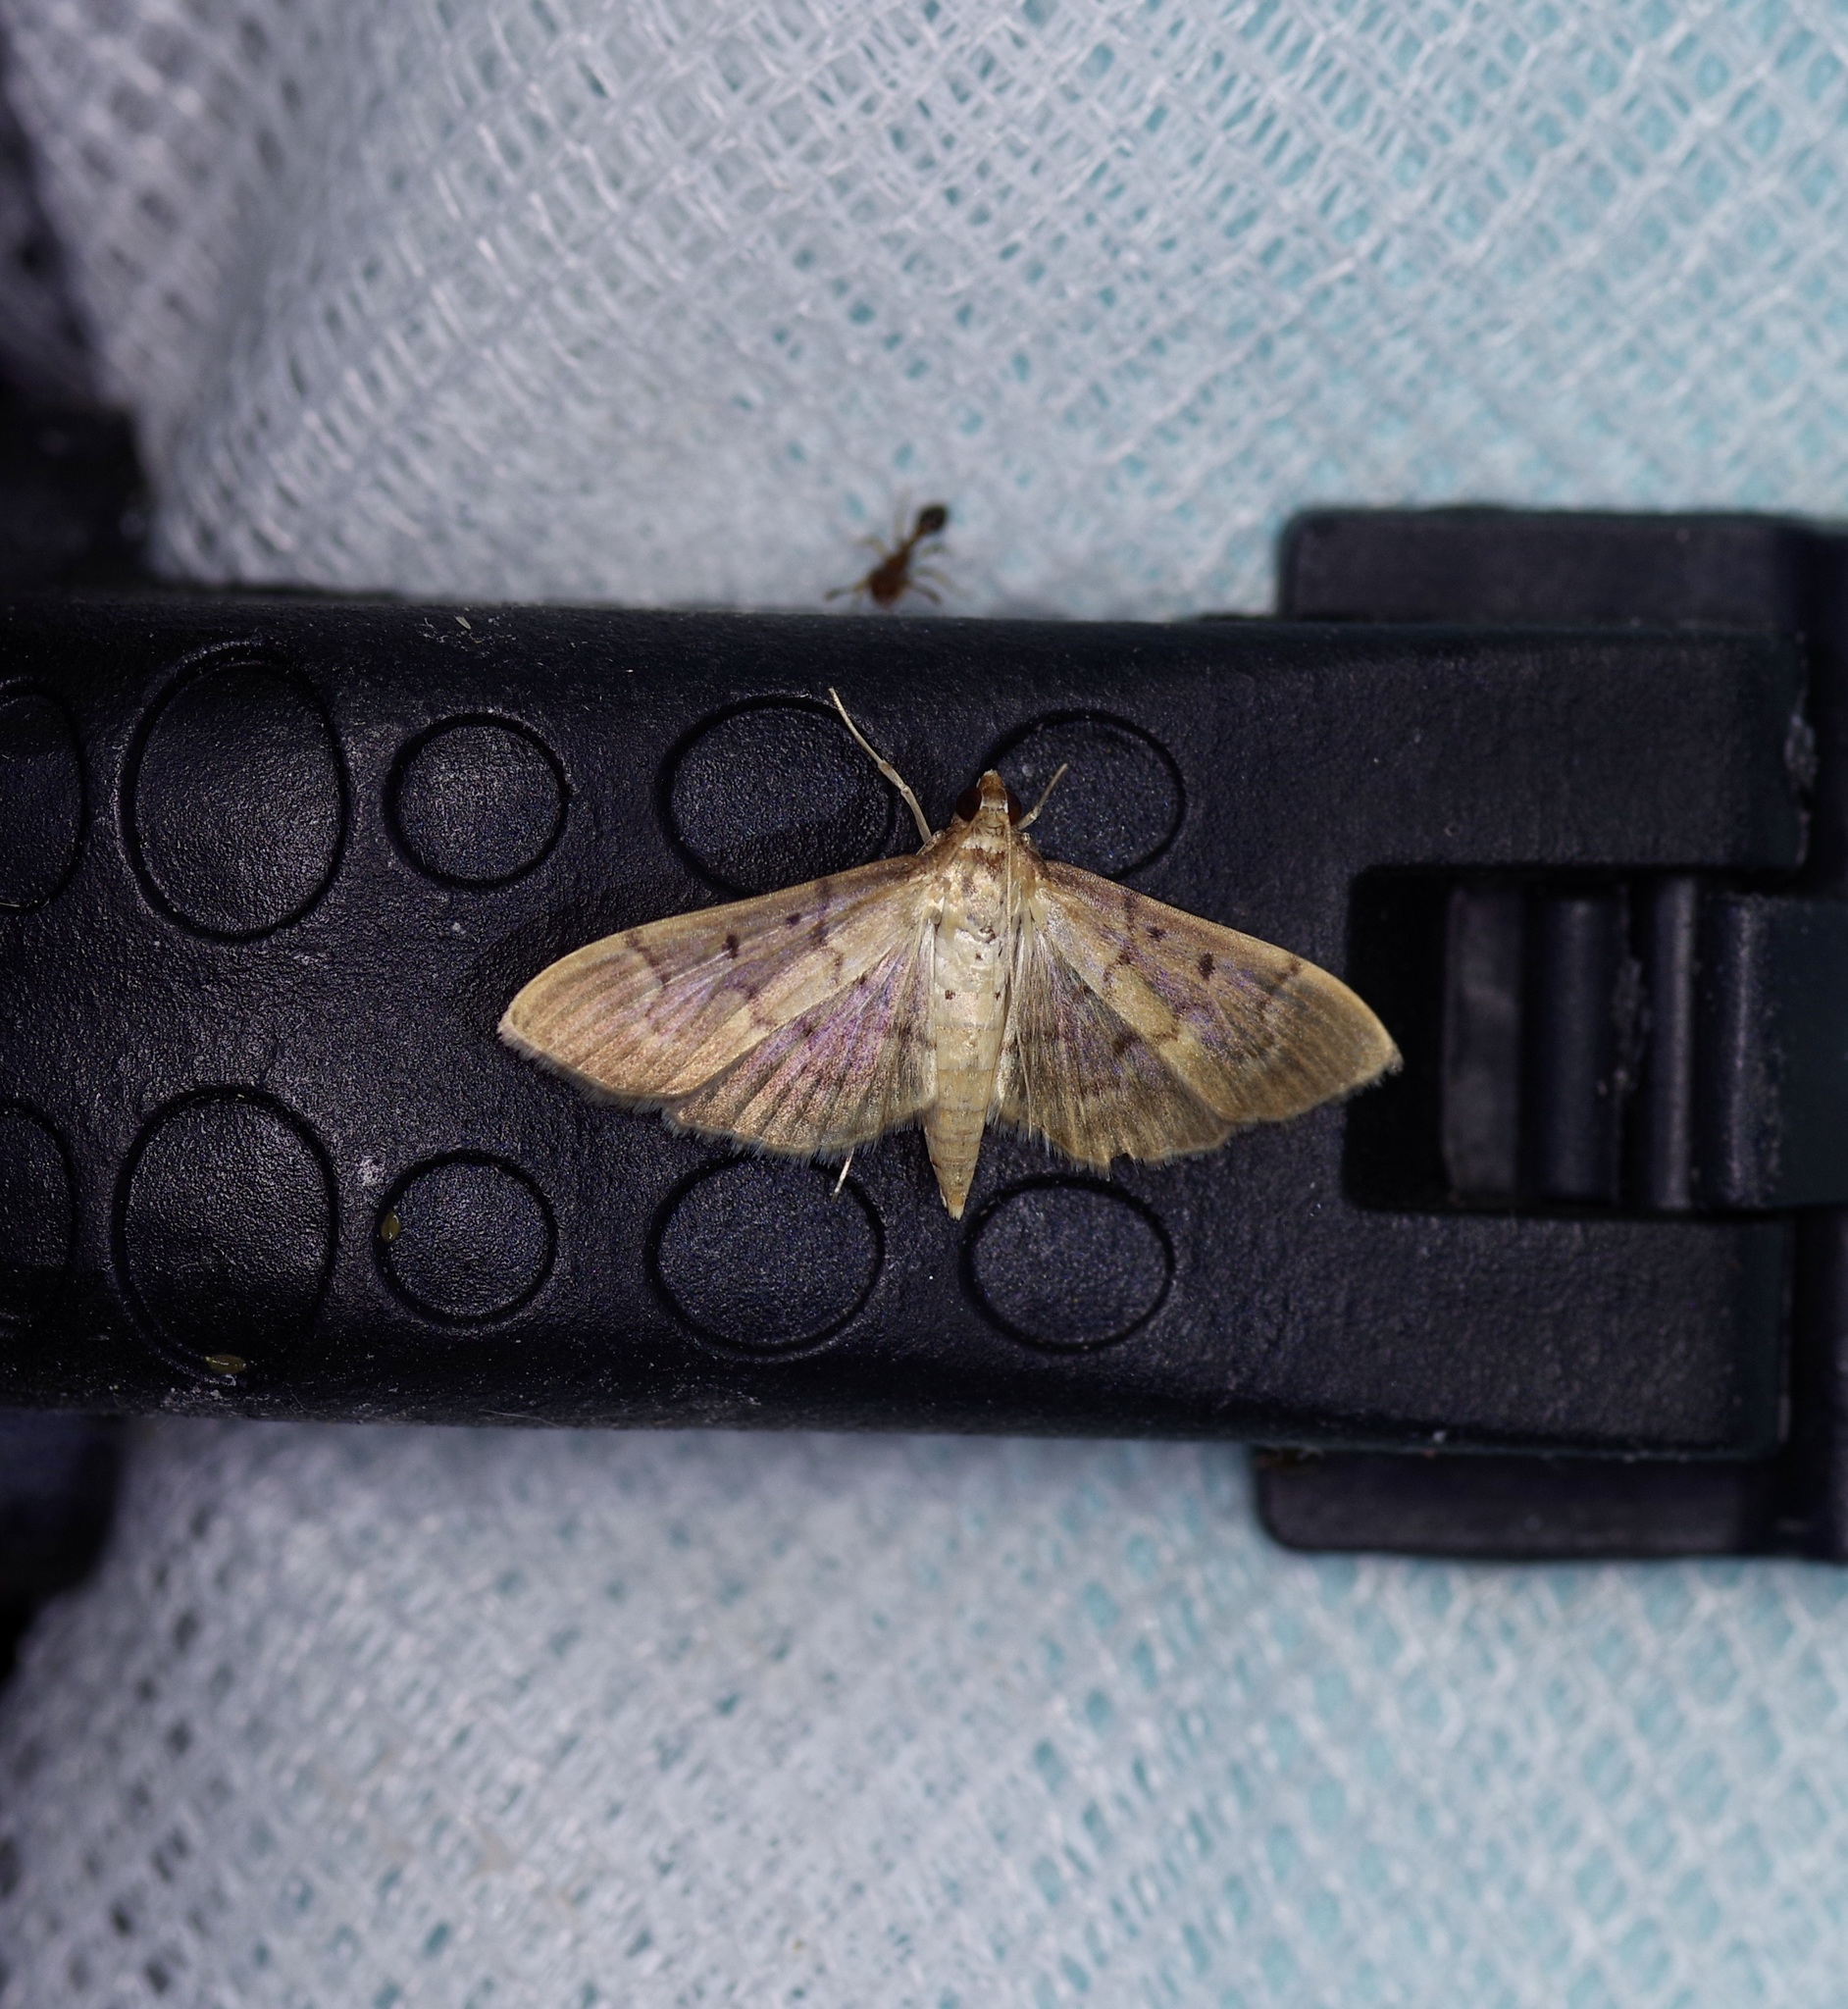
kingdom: Animalia
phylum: Arthropoda
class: Insecta
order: Lepidoptera
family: Crambidae
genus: Herpetogramma
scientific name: Herpetogramma bipunctalis
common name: Southern beet webworm
